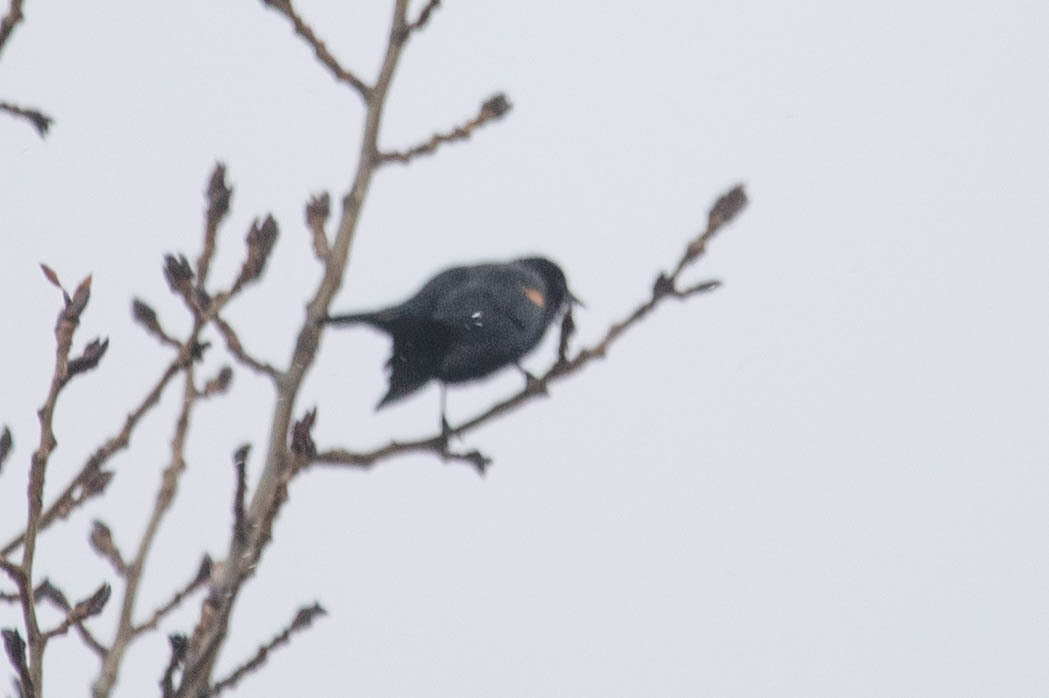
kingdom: Animalia
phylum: Chordata
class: Aves
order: Passeriformes
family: Icteridae
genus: Agelaius
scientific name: Agelaius phoeniceus
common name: Red-winged blackbird
